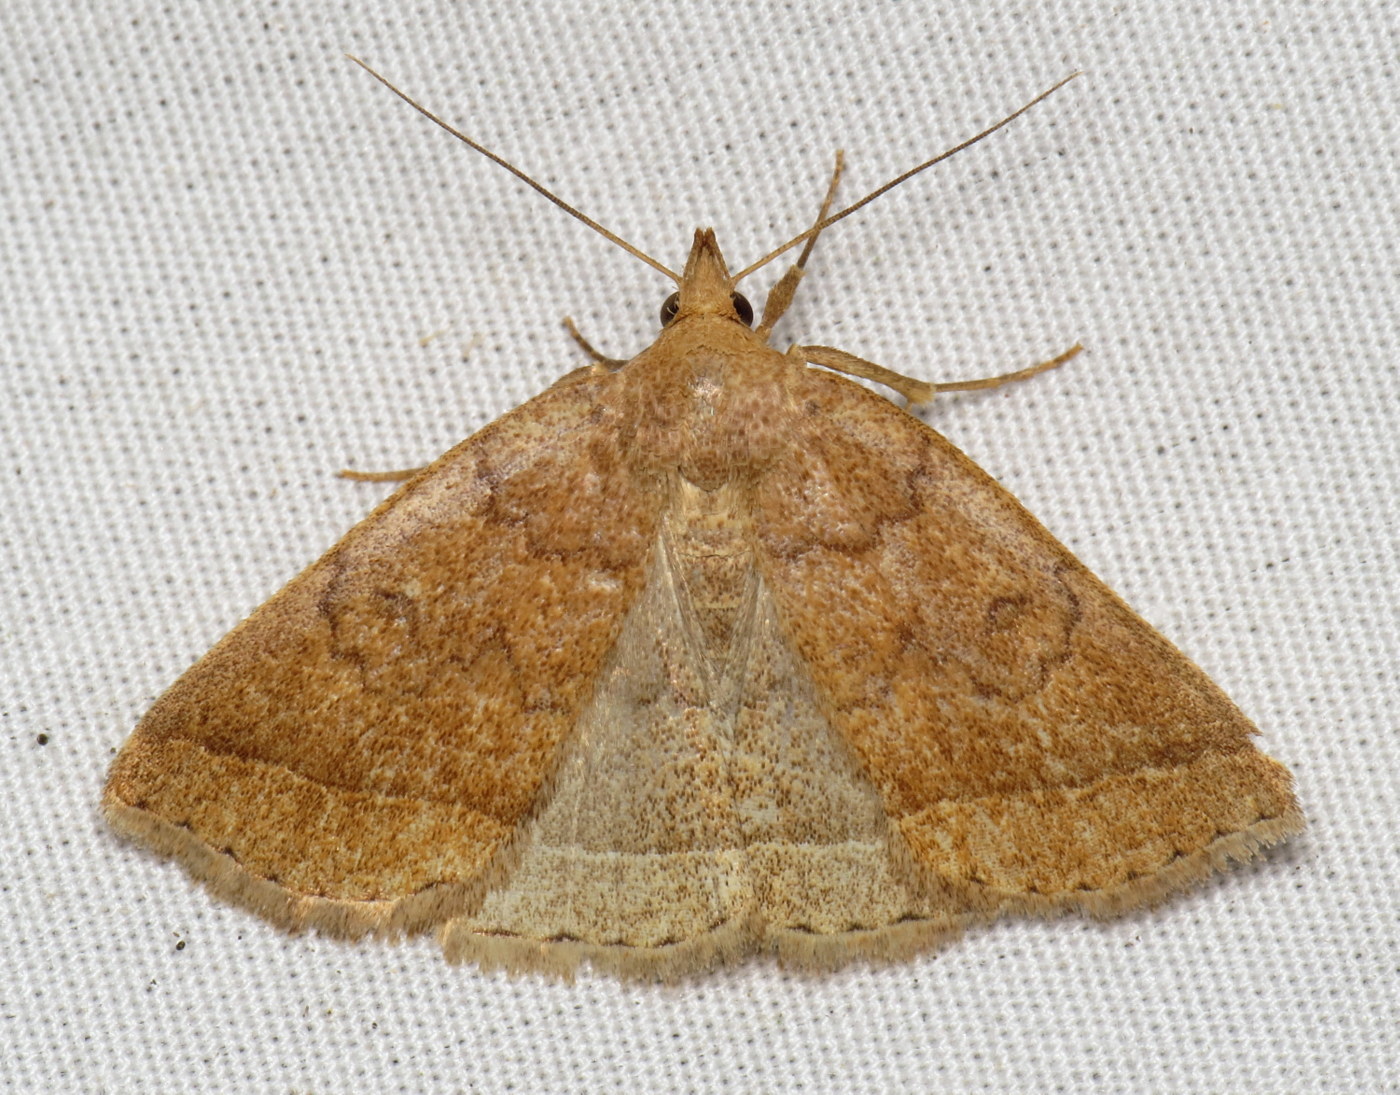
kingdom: Animalia
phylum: Arthropoda
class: Insecta
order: Lepidoptera
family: Erebidae
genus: Zanclognatha
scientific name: Zanclognatha jacchusalis
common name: Yellowish zanclognatha
